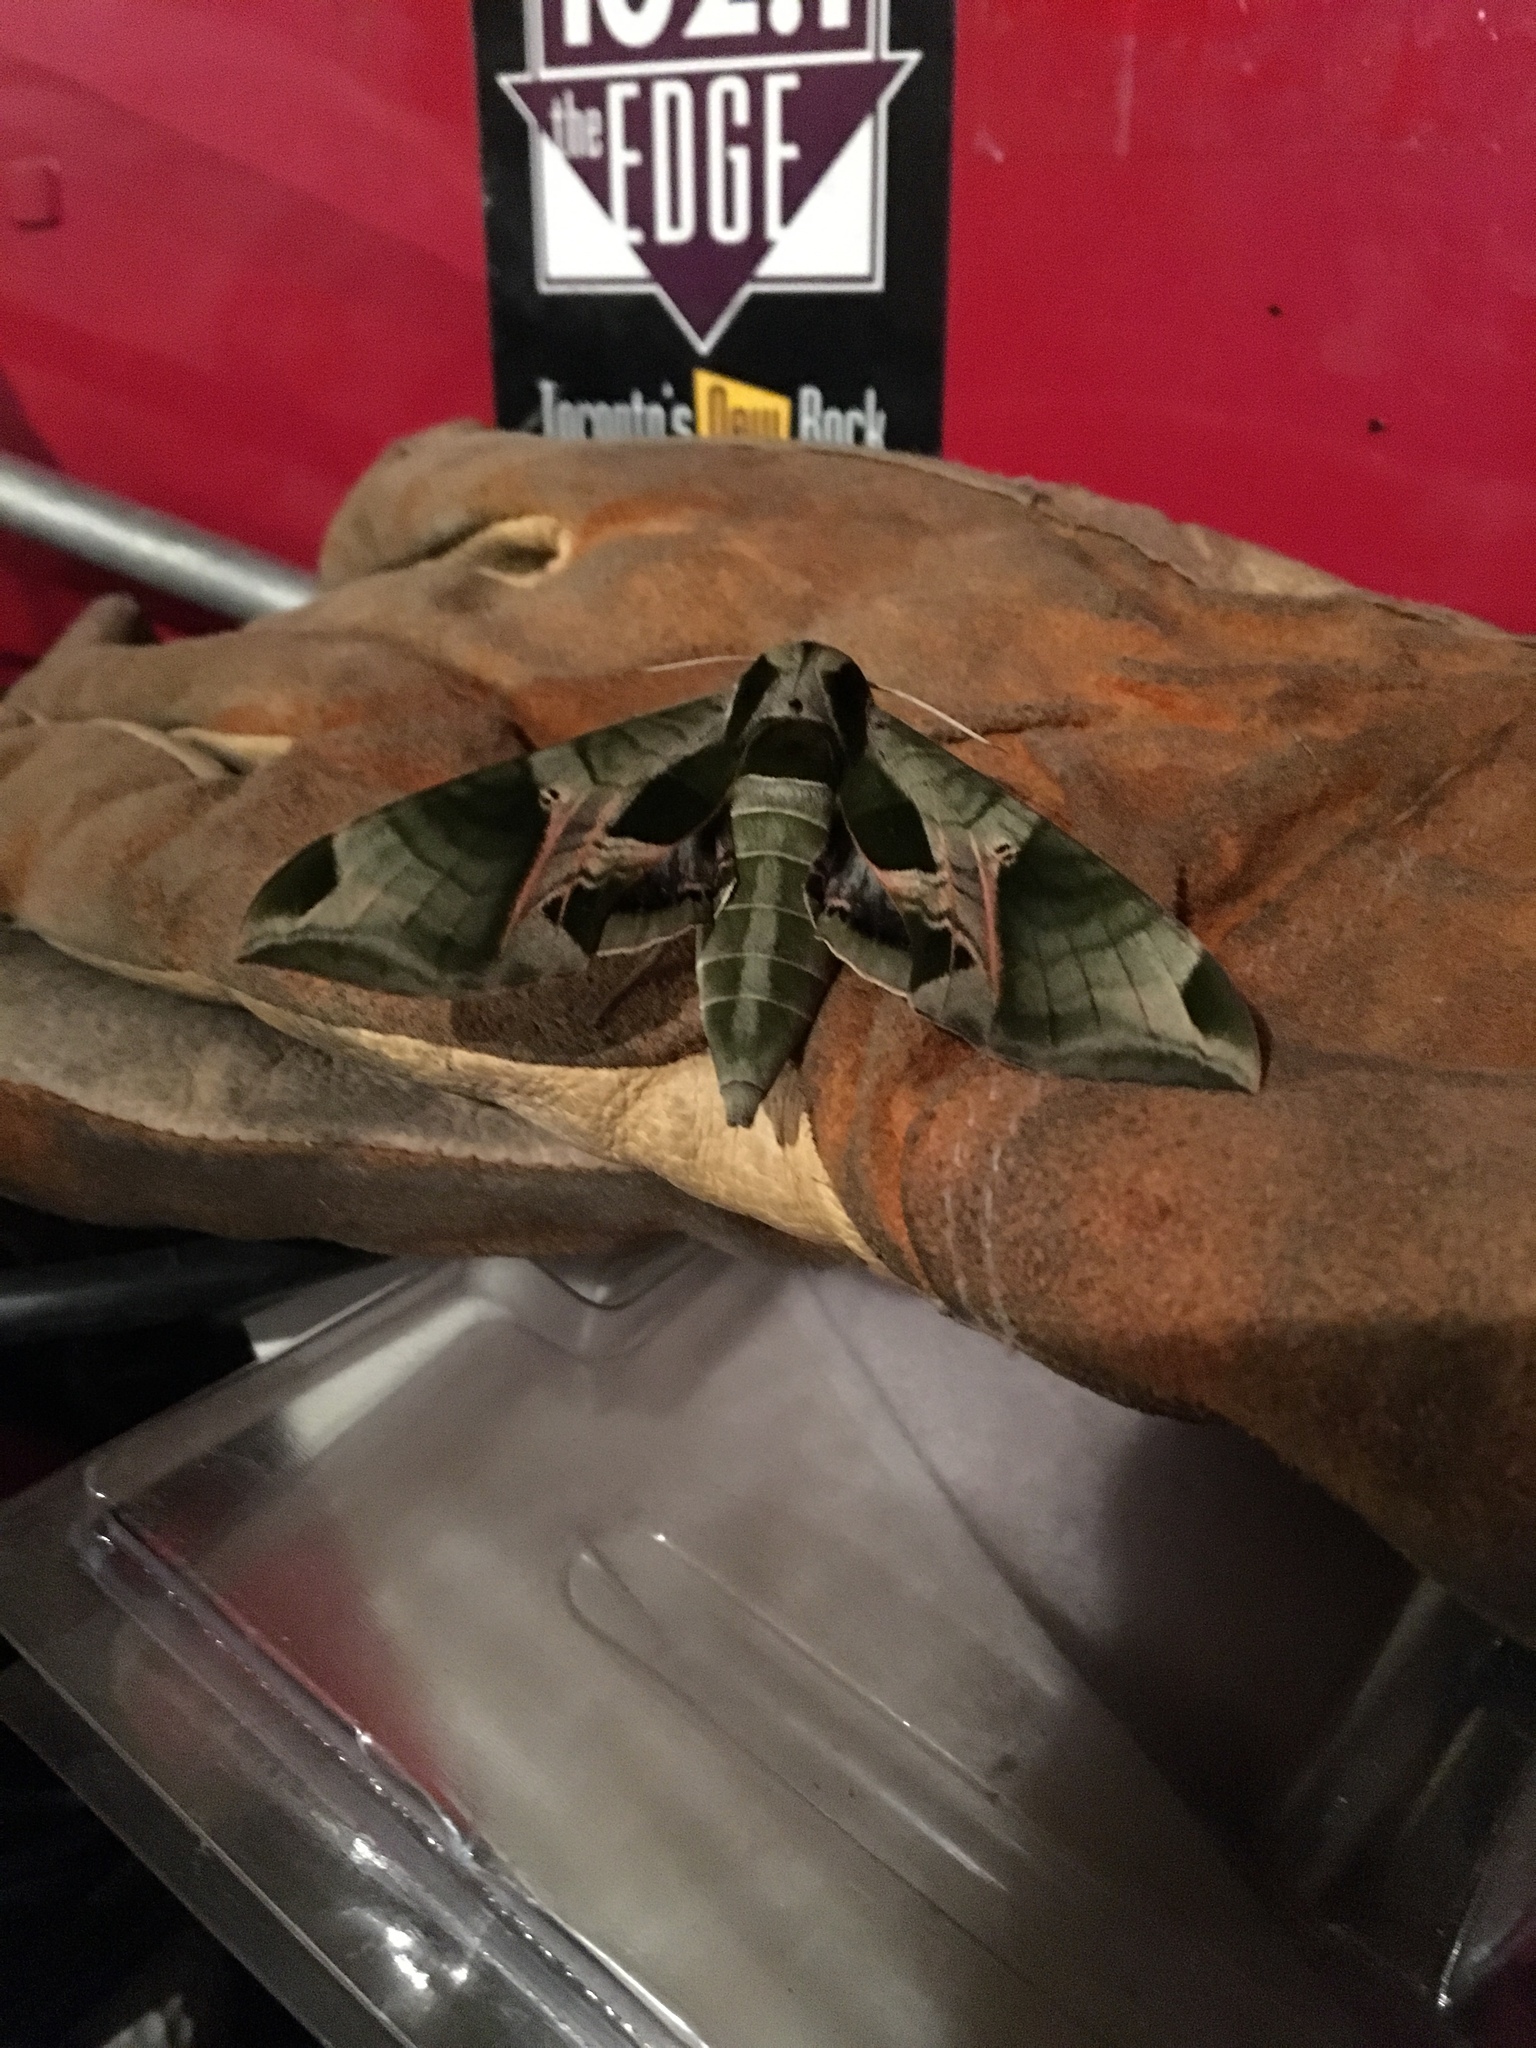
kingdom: Animalia
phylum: Arthropoda
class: Insecta
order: Lepidoptera
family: Sphingidae
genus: Eumorpha
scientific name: Eumorpha pandorus
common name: Pandora sphinx
